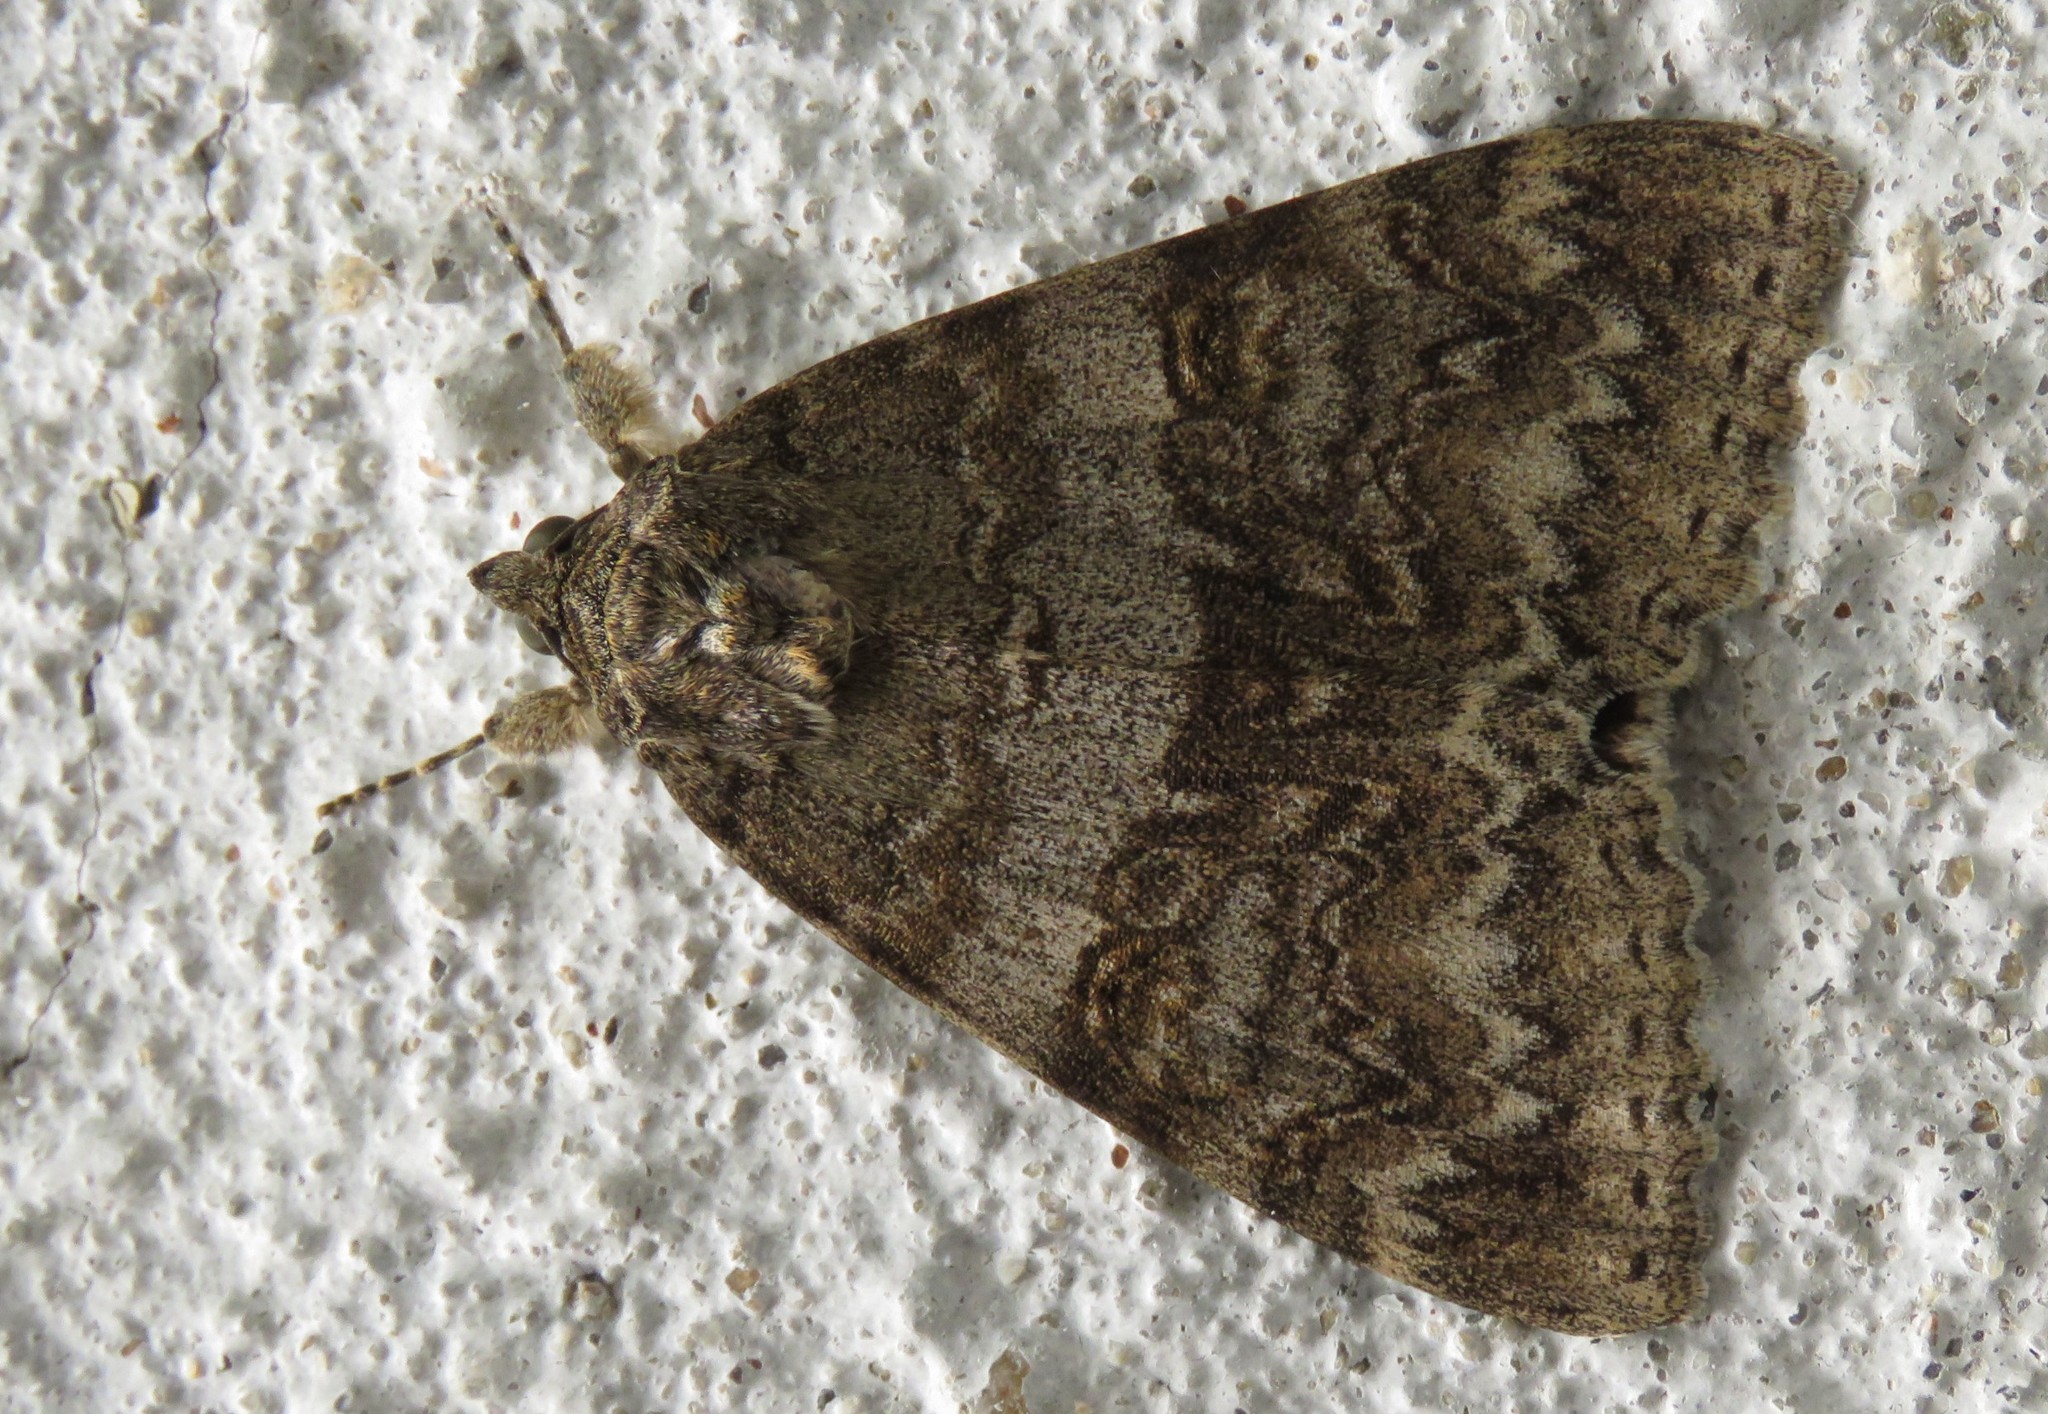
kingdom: Animalia
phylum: Arthropoda
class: Insecta
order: Lepidoptera
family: Erebidae
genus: Catocala
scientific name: Catocala nupta
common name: Red underwing
